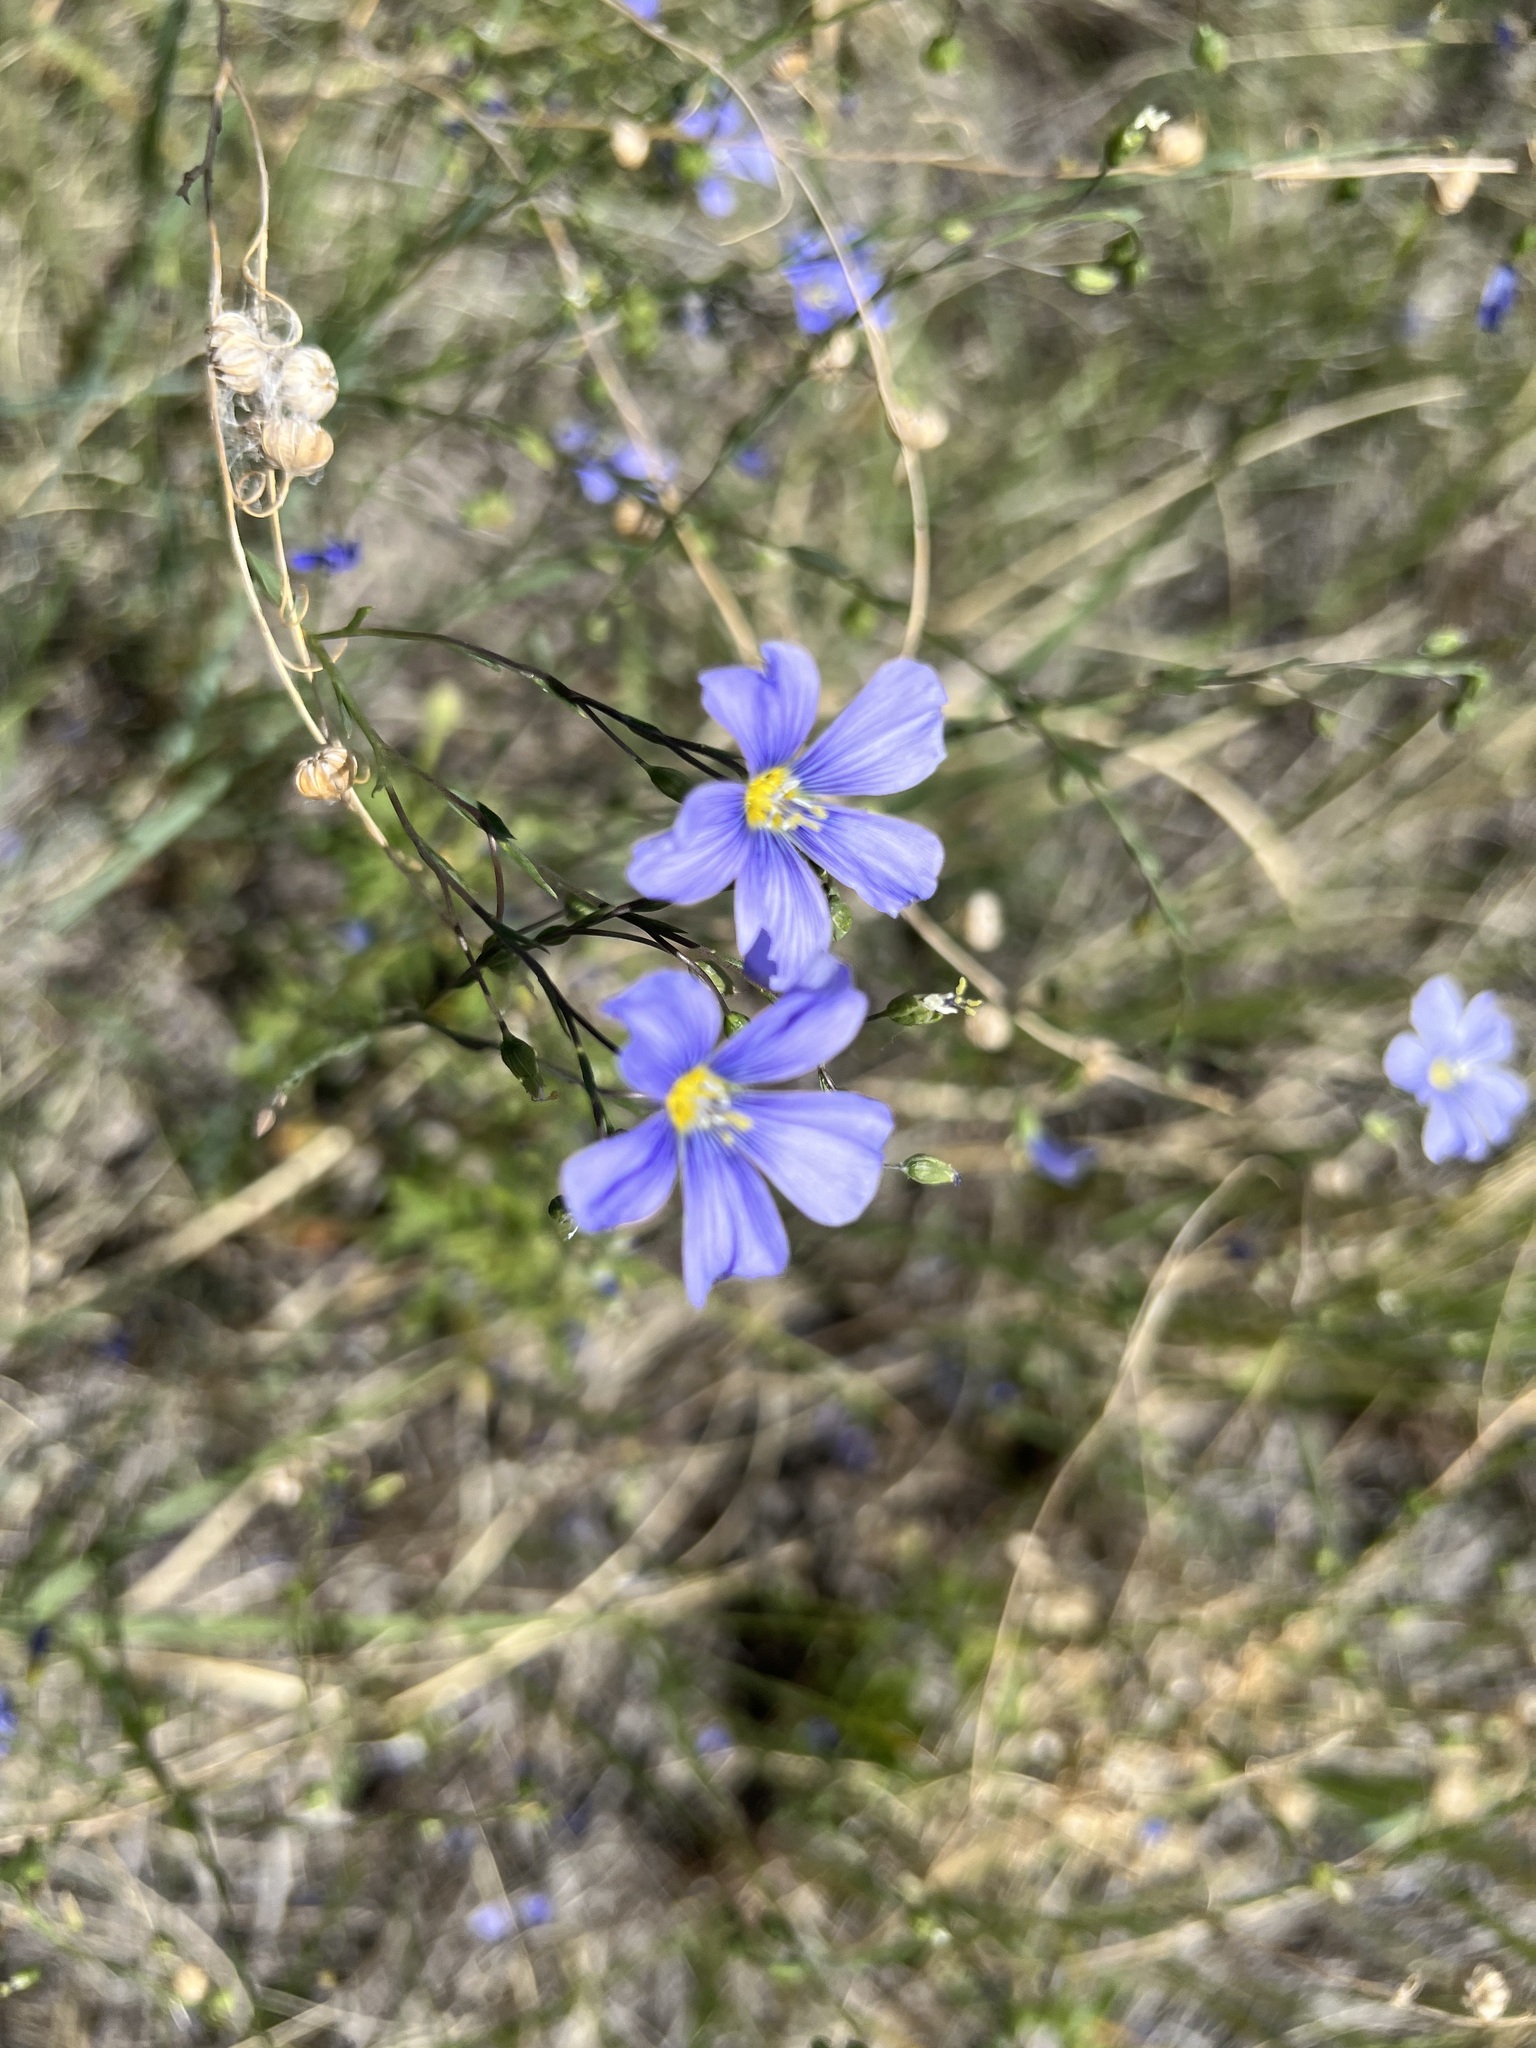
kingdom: Plantae
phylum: Tracheophyta
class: Magnoliopsida
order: Malpighiales
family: Linaceae
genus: Linum
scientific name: Linum lewisii
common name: Prairie flax
